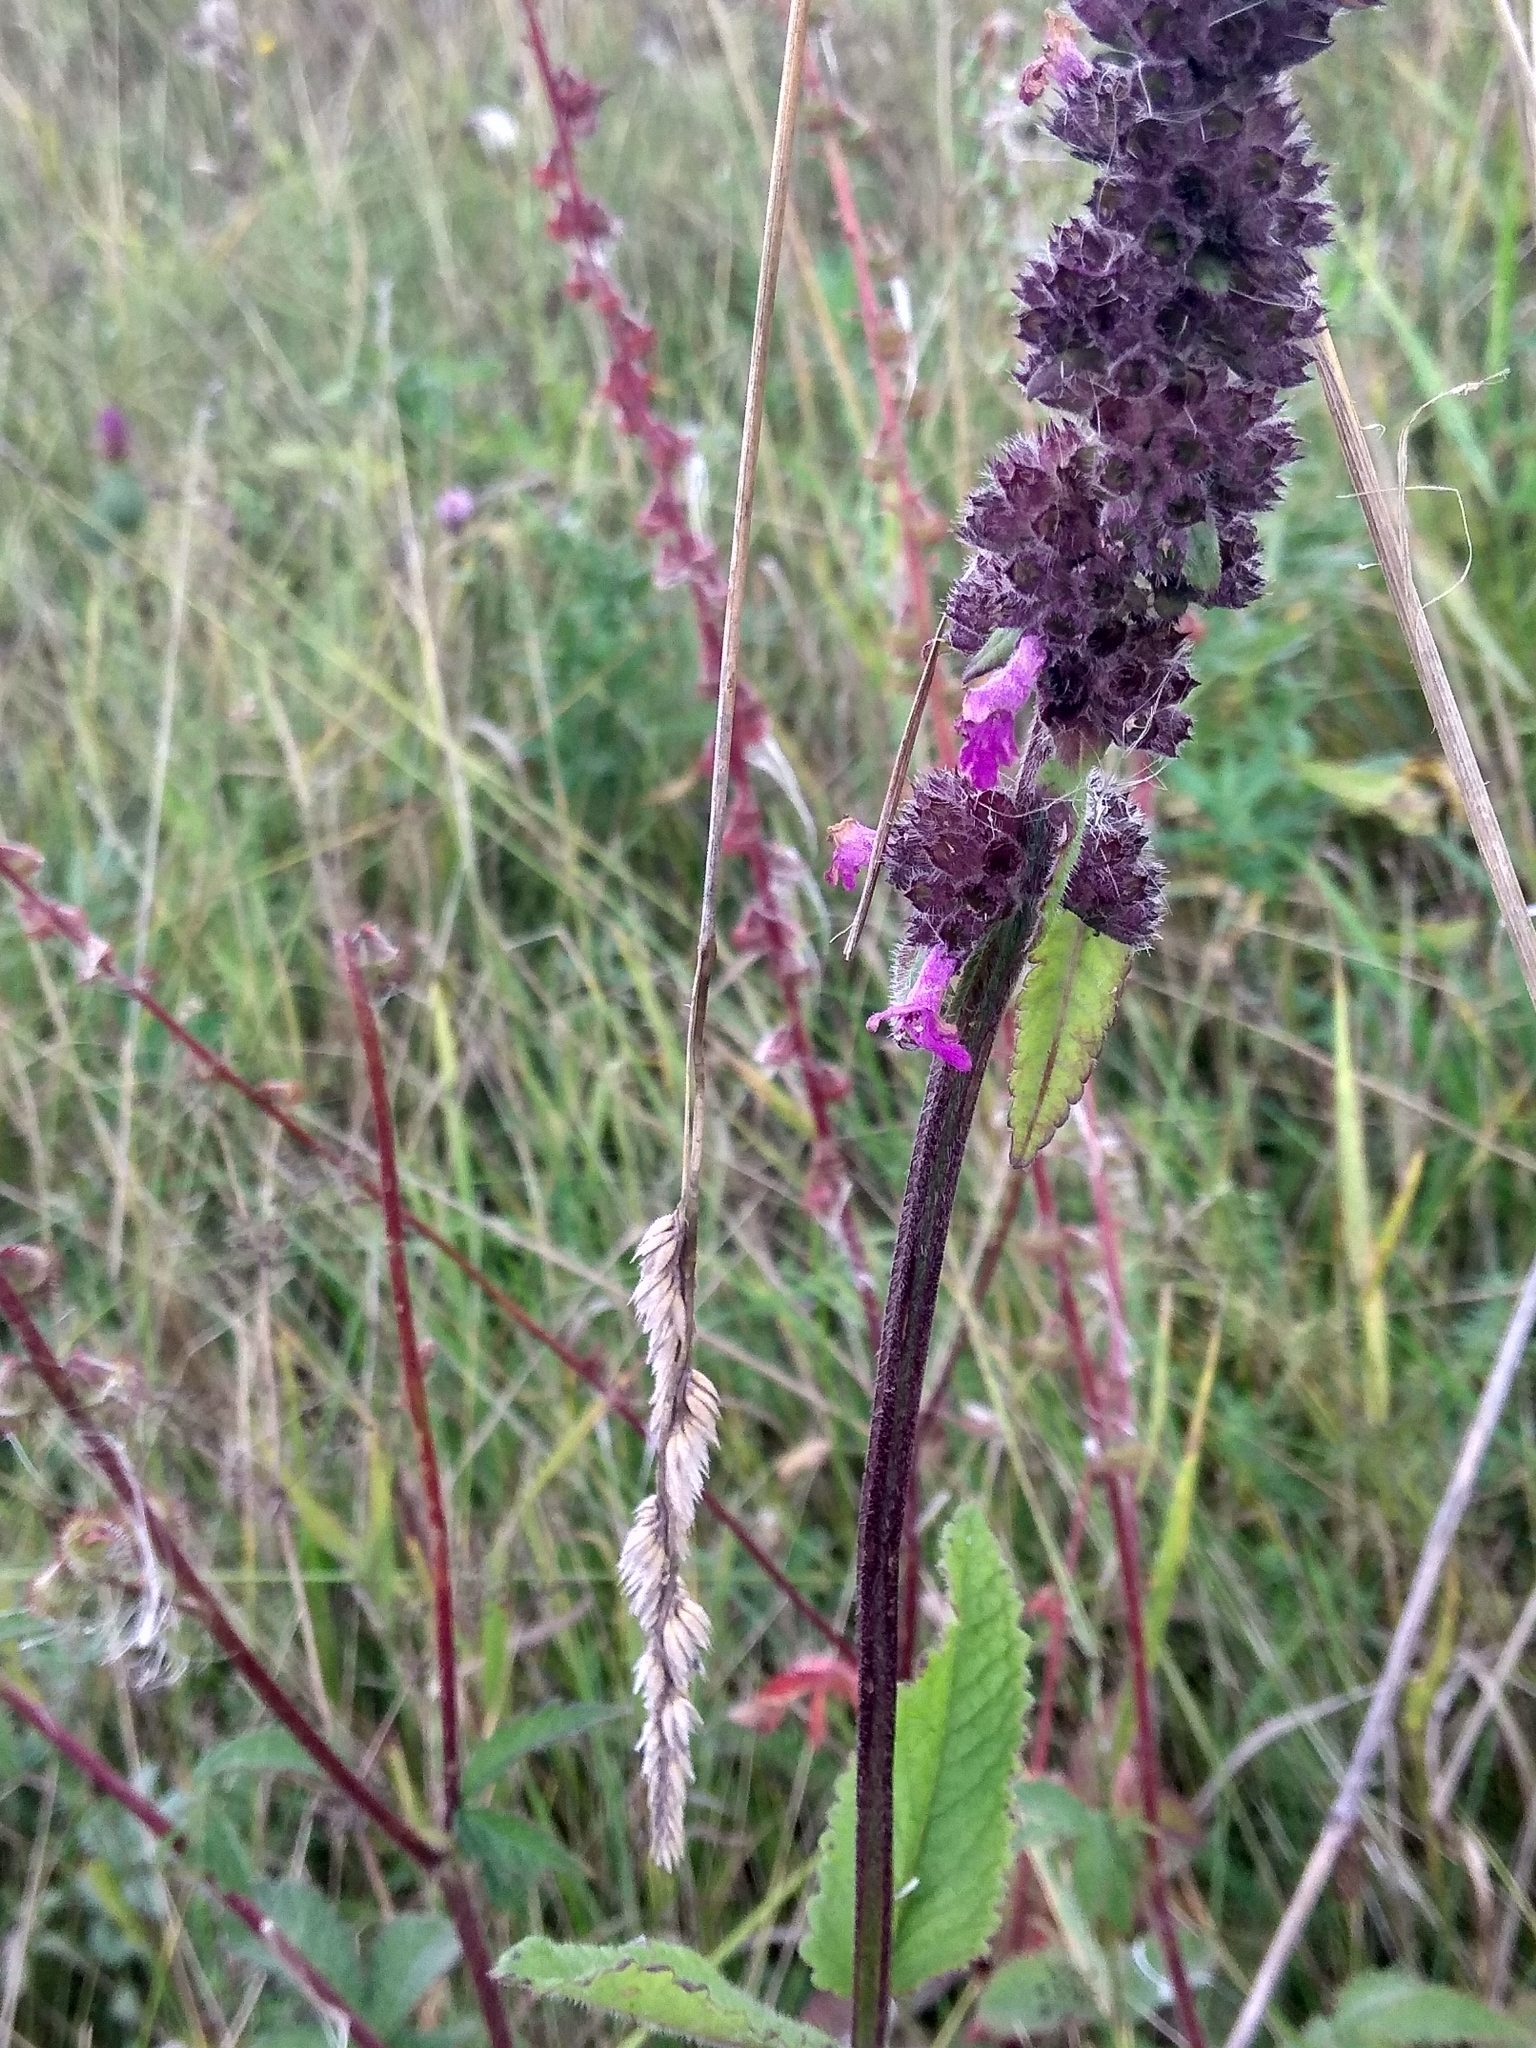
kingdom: Plantae
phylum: Tracheophyta
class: Magnoliopsida
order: Lamiales
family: Lamiaceae
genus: Betonica
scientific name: Betonica officinalis
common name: Bishop's-wort
